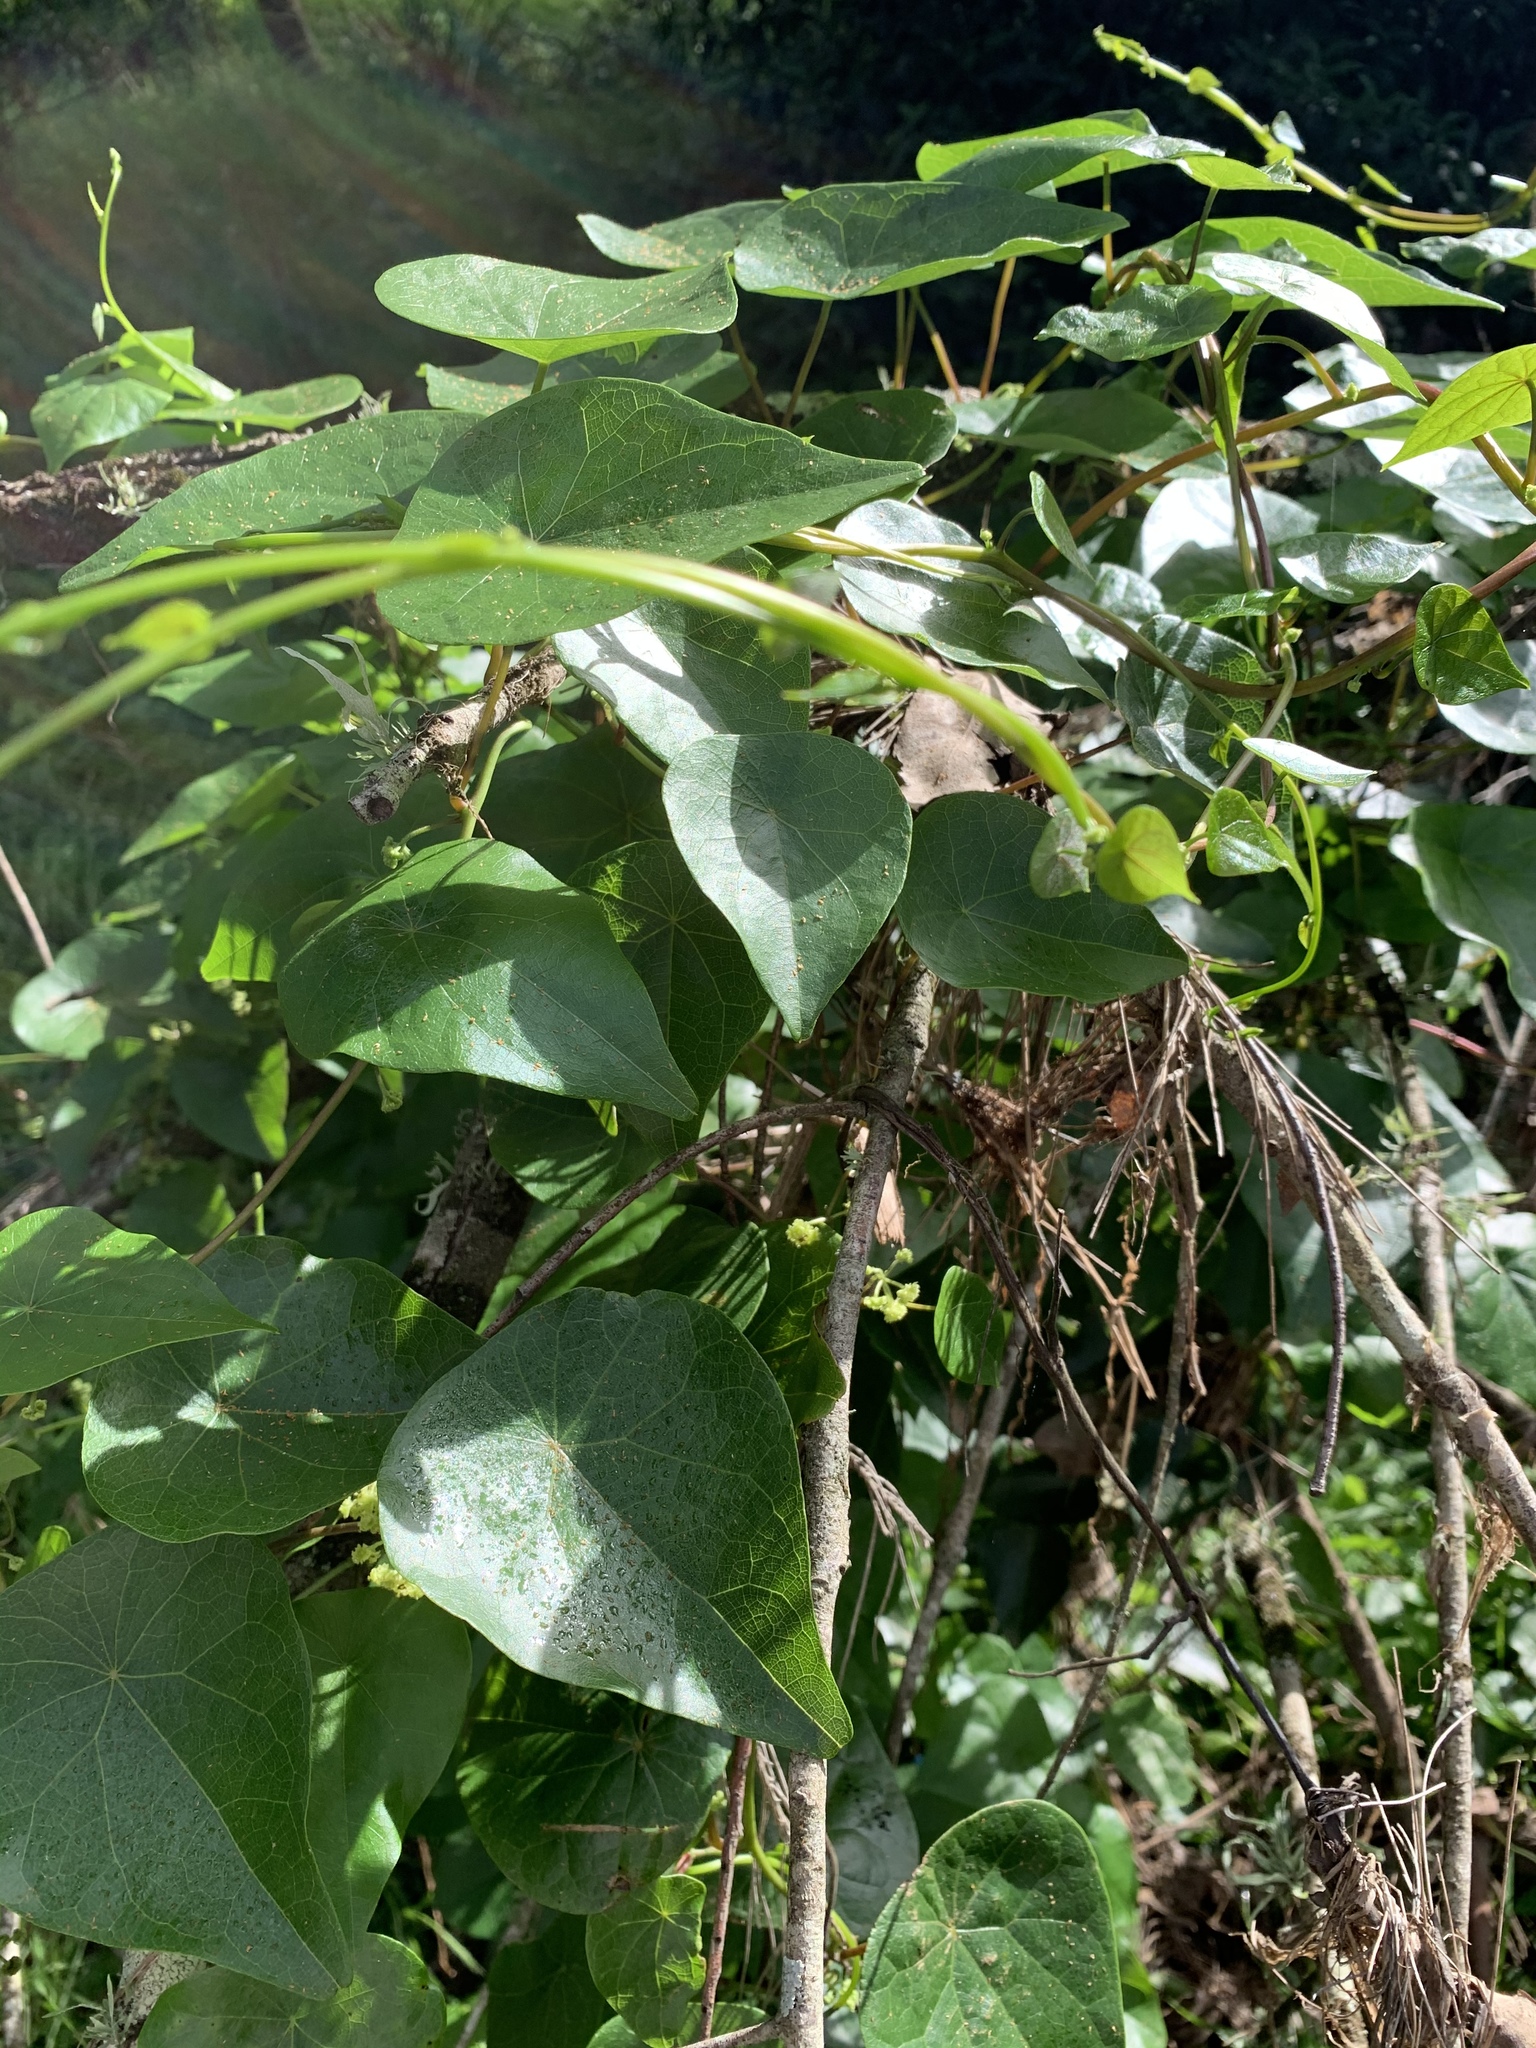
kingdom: Plantae
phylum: Tracheophyta
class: Magnoliopsida
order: Ranunculales
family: Menispermaceae
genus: Stephania
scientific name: Stephania japonica
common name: Snake vine
